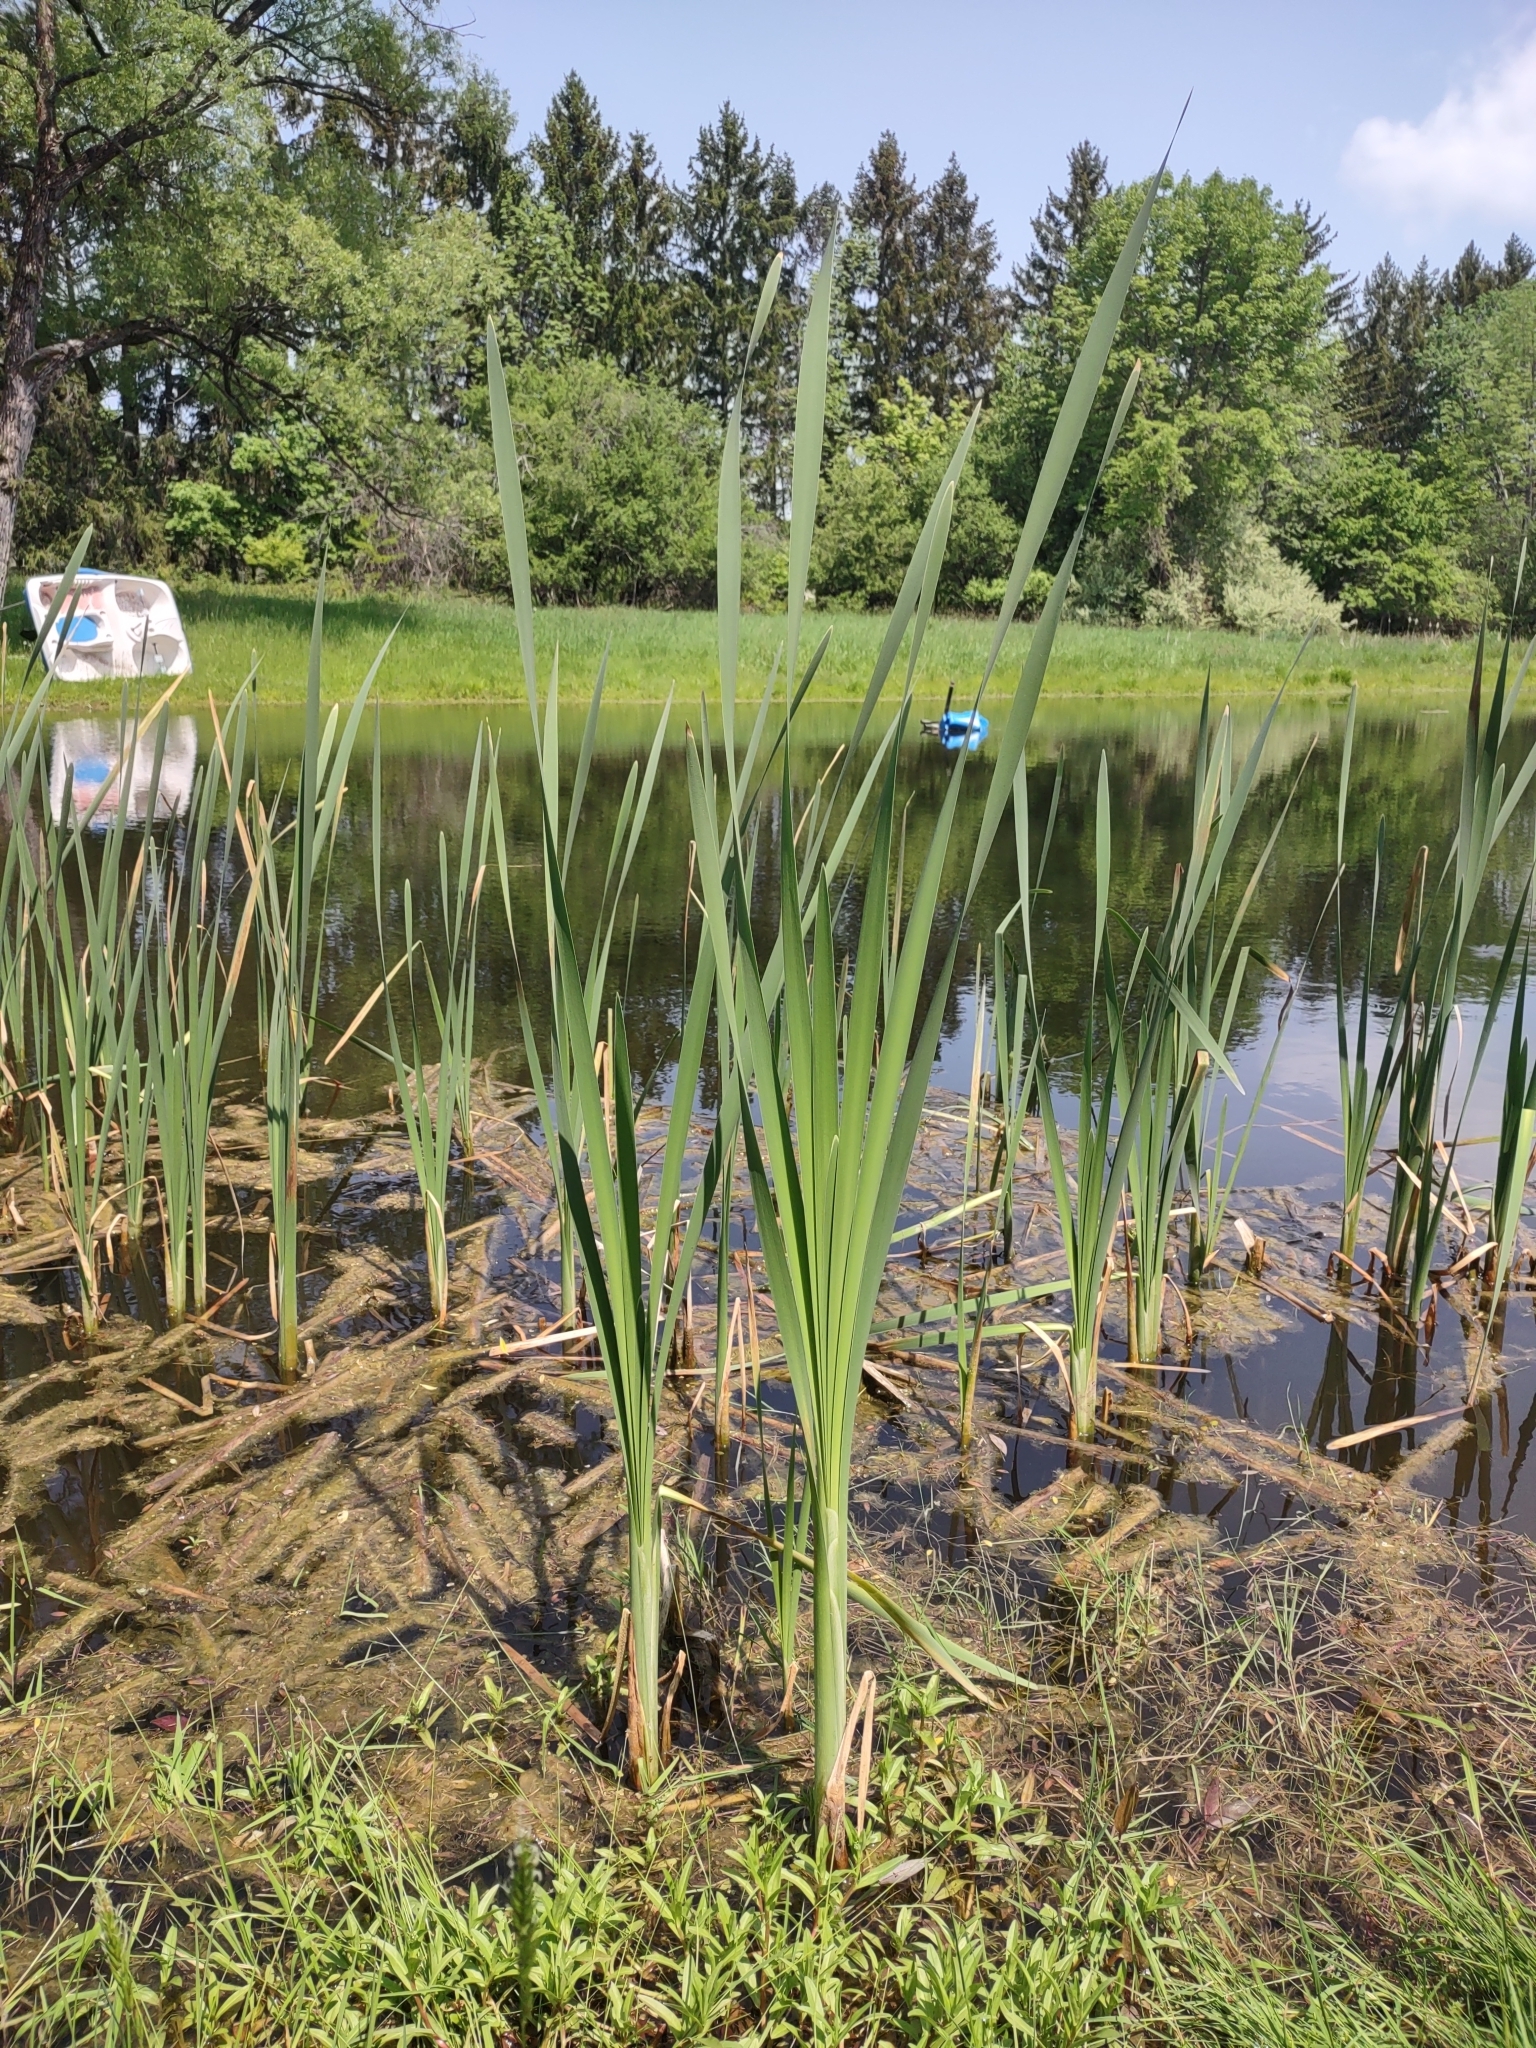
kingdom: Plantae
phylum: Tracheophyta
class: Liliopsida
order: Poales
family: Typhaceae
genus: Typha
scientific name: Typha latifolia
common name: Broadleaf cattail
